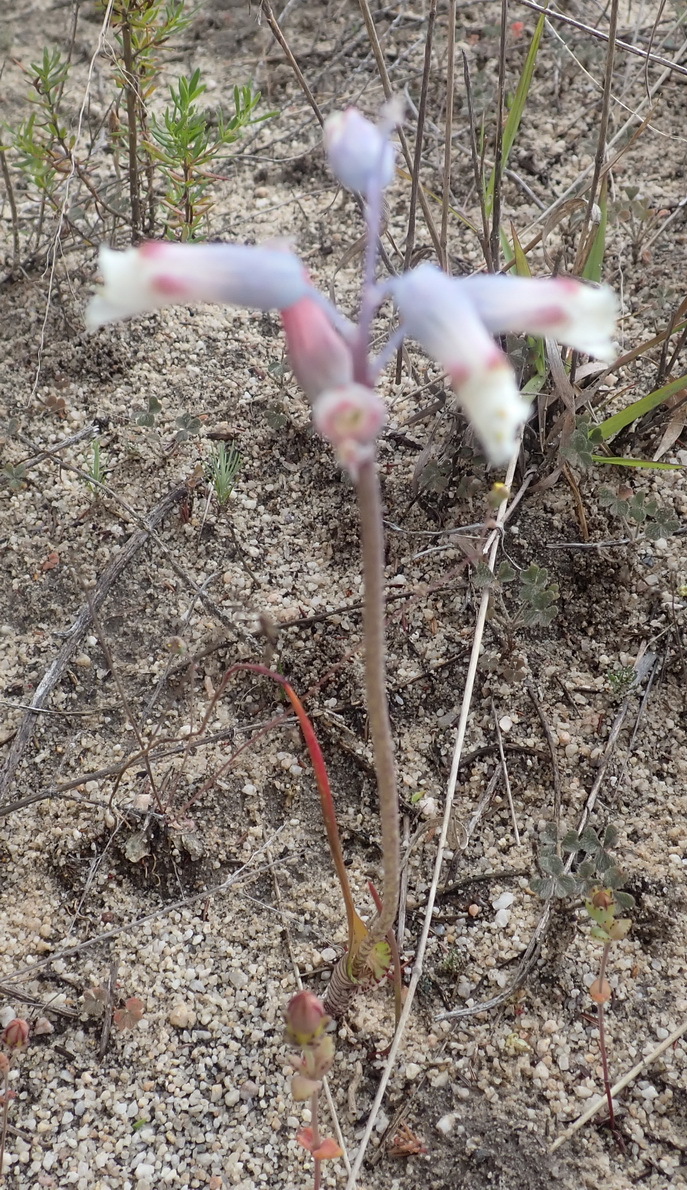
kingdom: Plantae
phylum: Tracheophyta
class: Liliopsida
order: Asparagales
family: Asparagaceae
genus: Lachenalia
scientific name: Lachenalia unifolia
